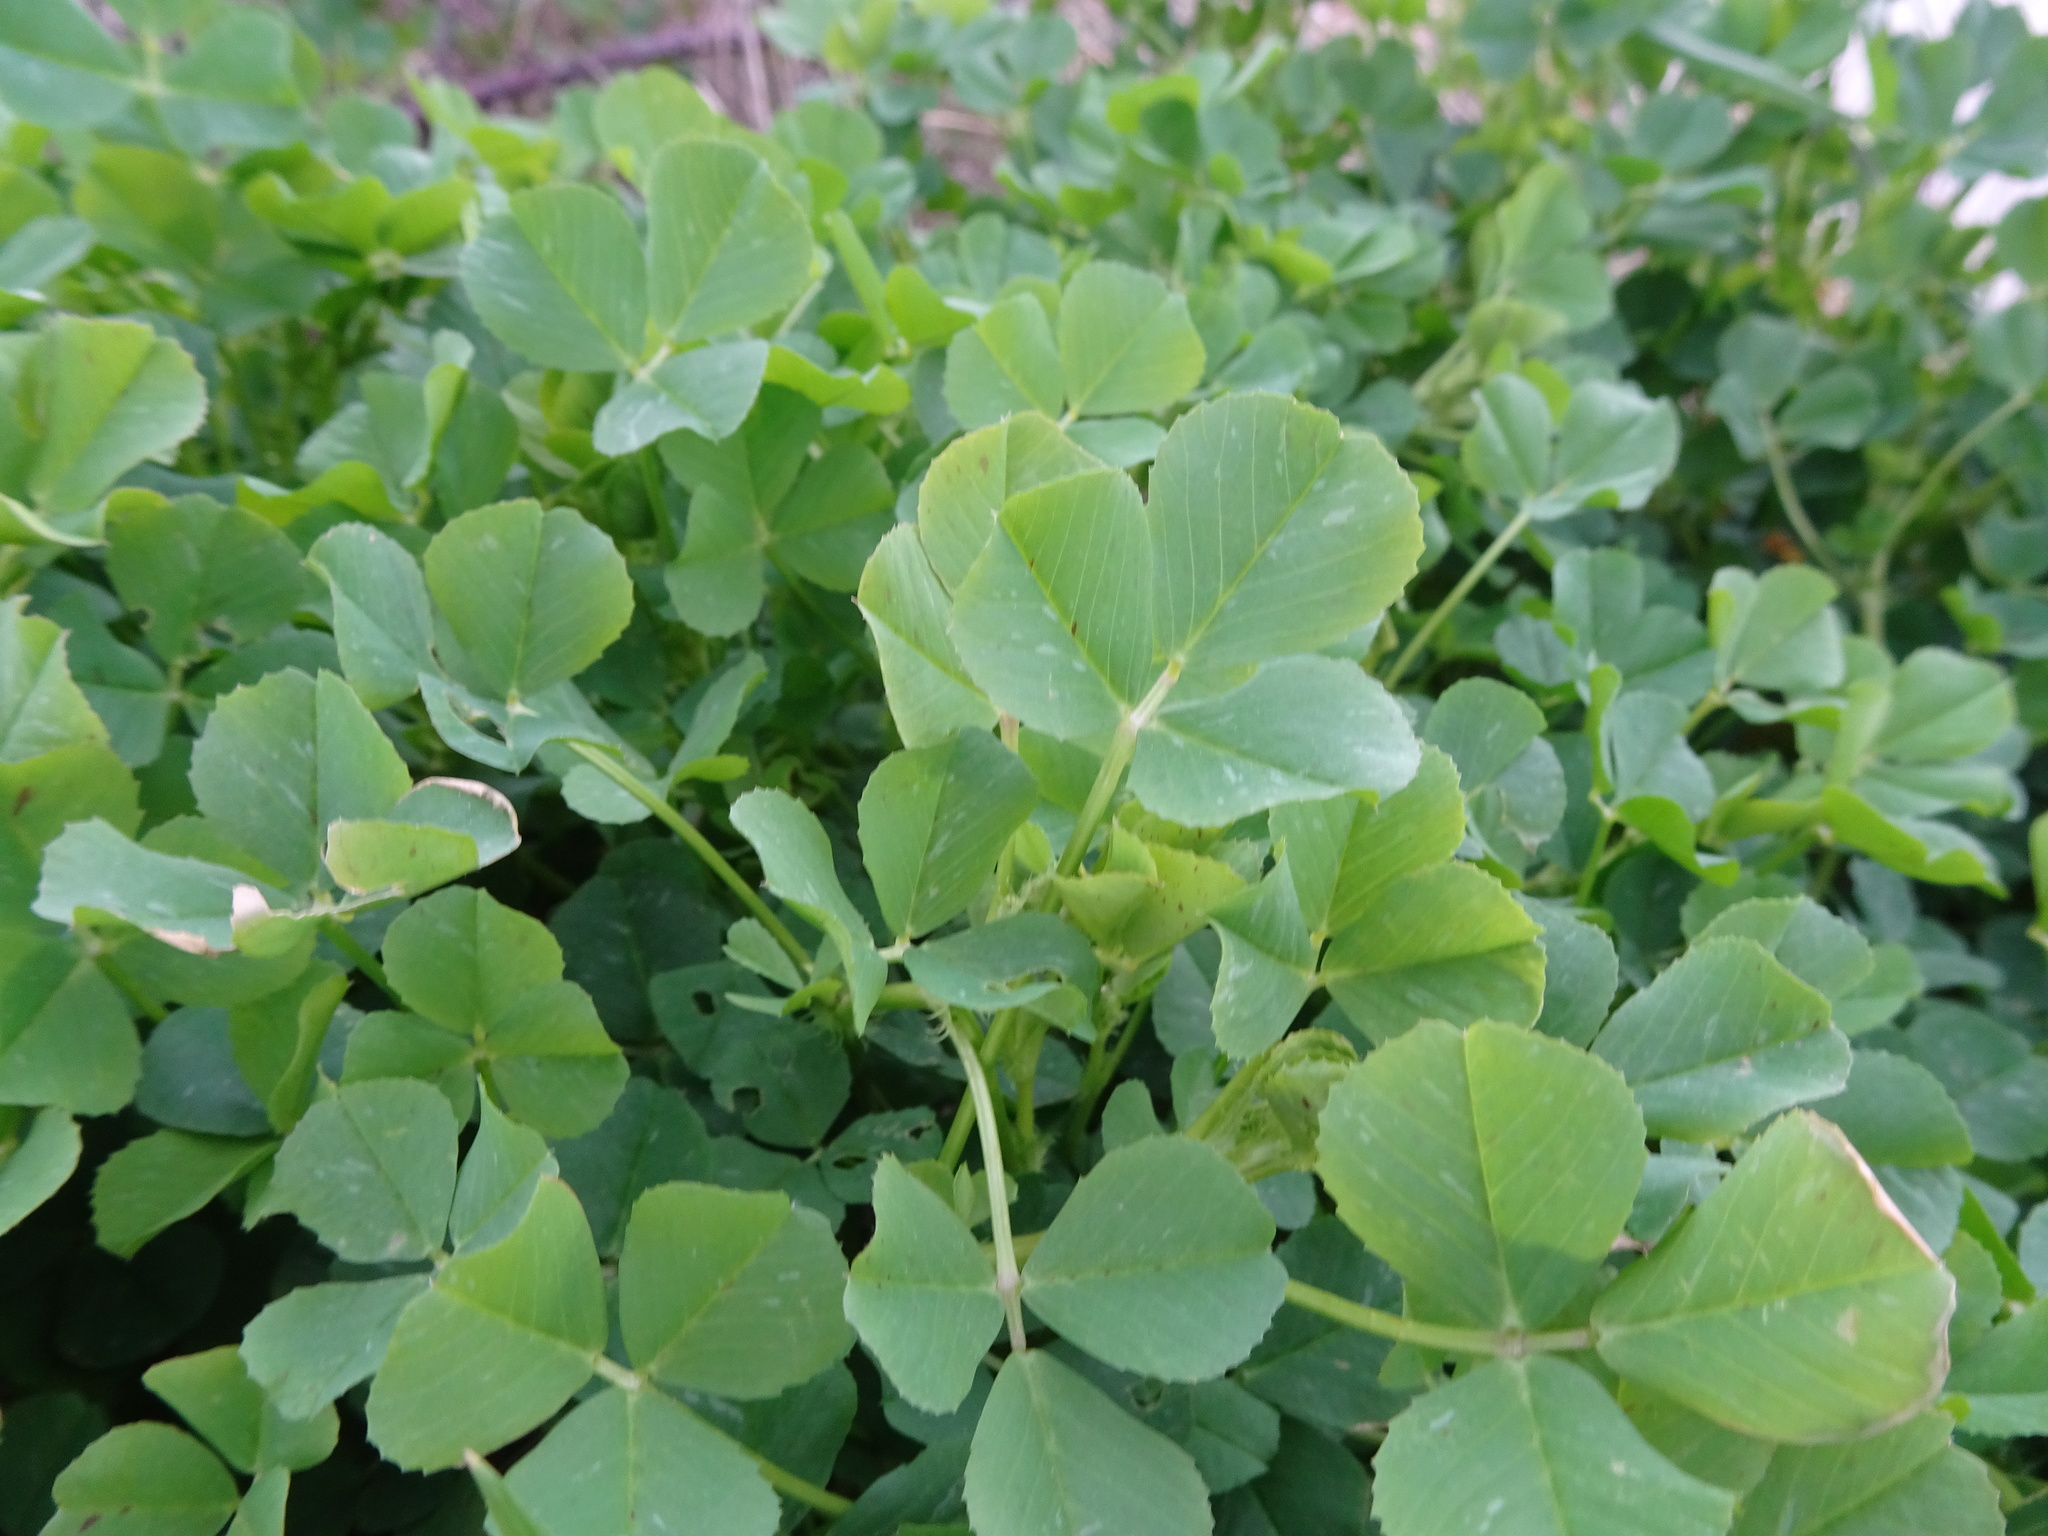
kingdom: Plantae
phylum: Tracheophyta
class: Magnoliopsida
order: Fabales
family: Fabaceae
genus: Medicago
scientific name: Medicago polymorpha
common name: Burclover
